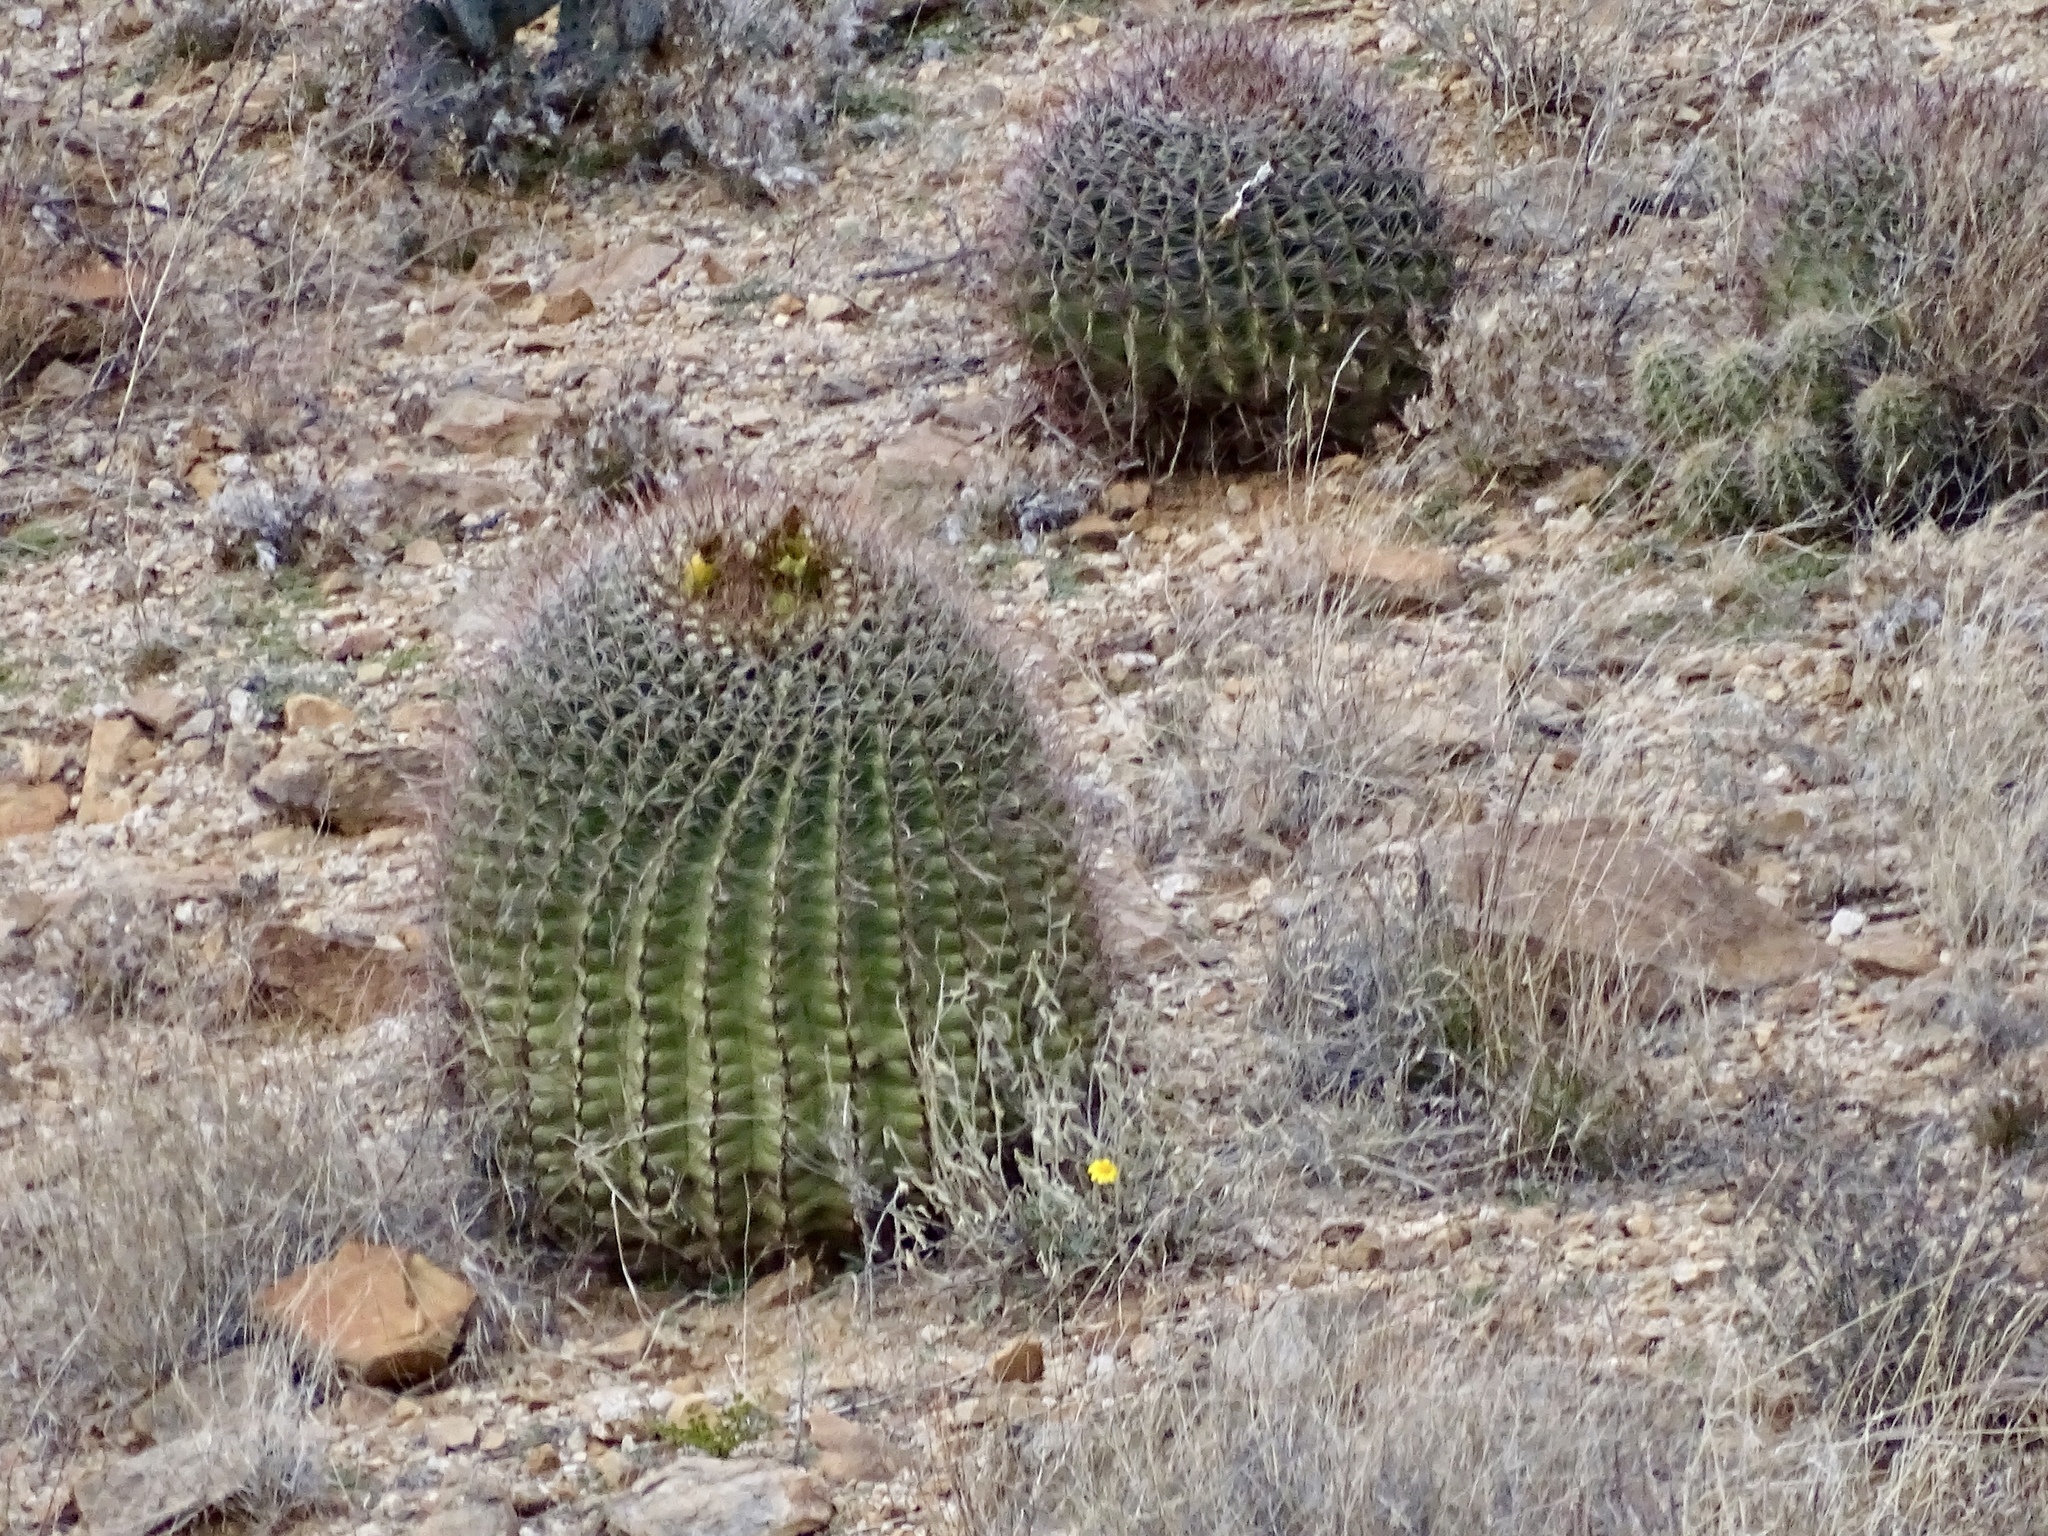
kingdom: Plantae
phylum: Tracheophyta
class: Magnoliopsida
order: Caryophyllales
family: Cactaceae
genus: Ferocactus
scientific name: Ferocactus wislizeni
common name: Candy barrel cactus
